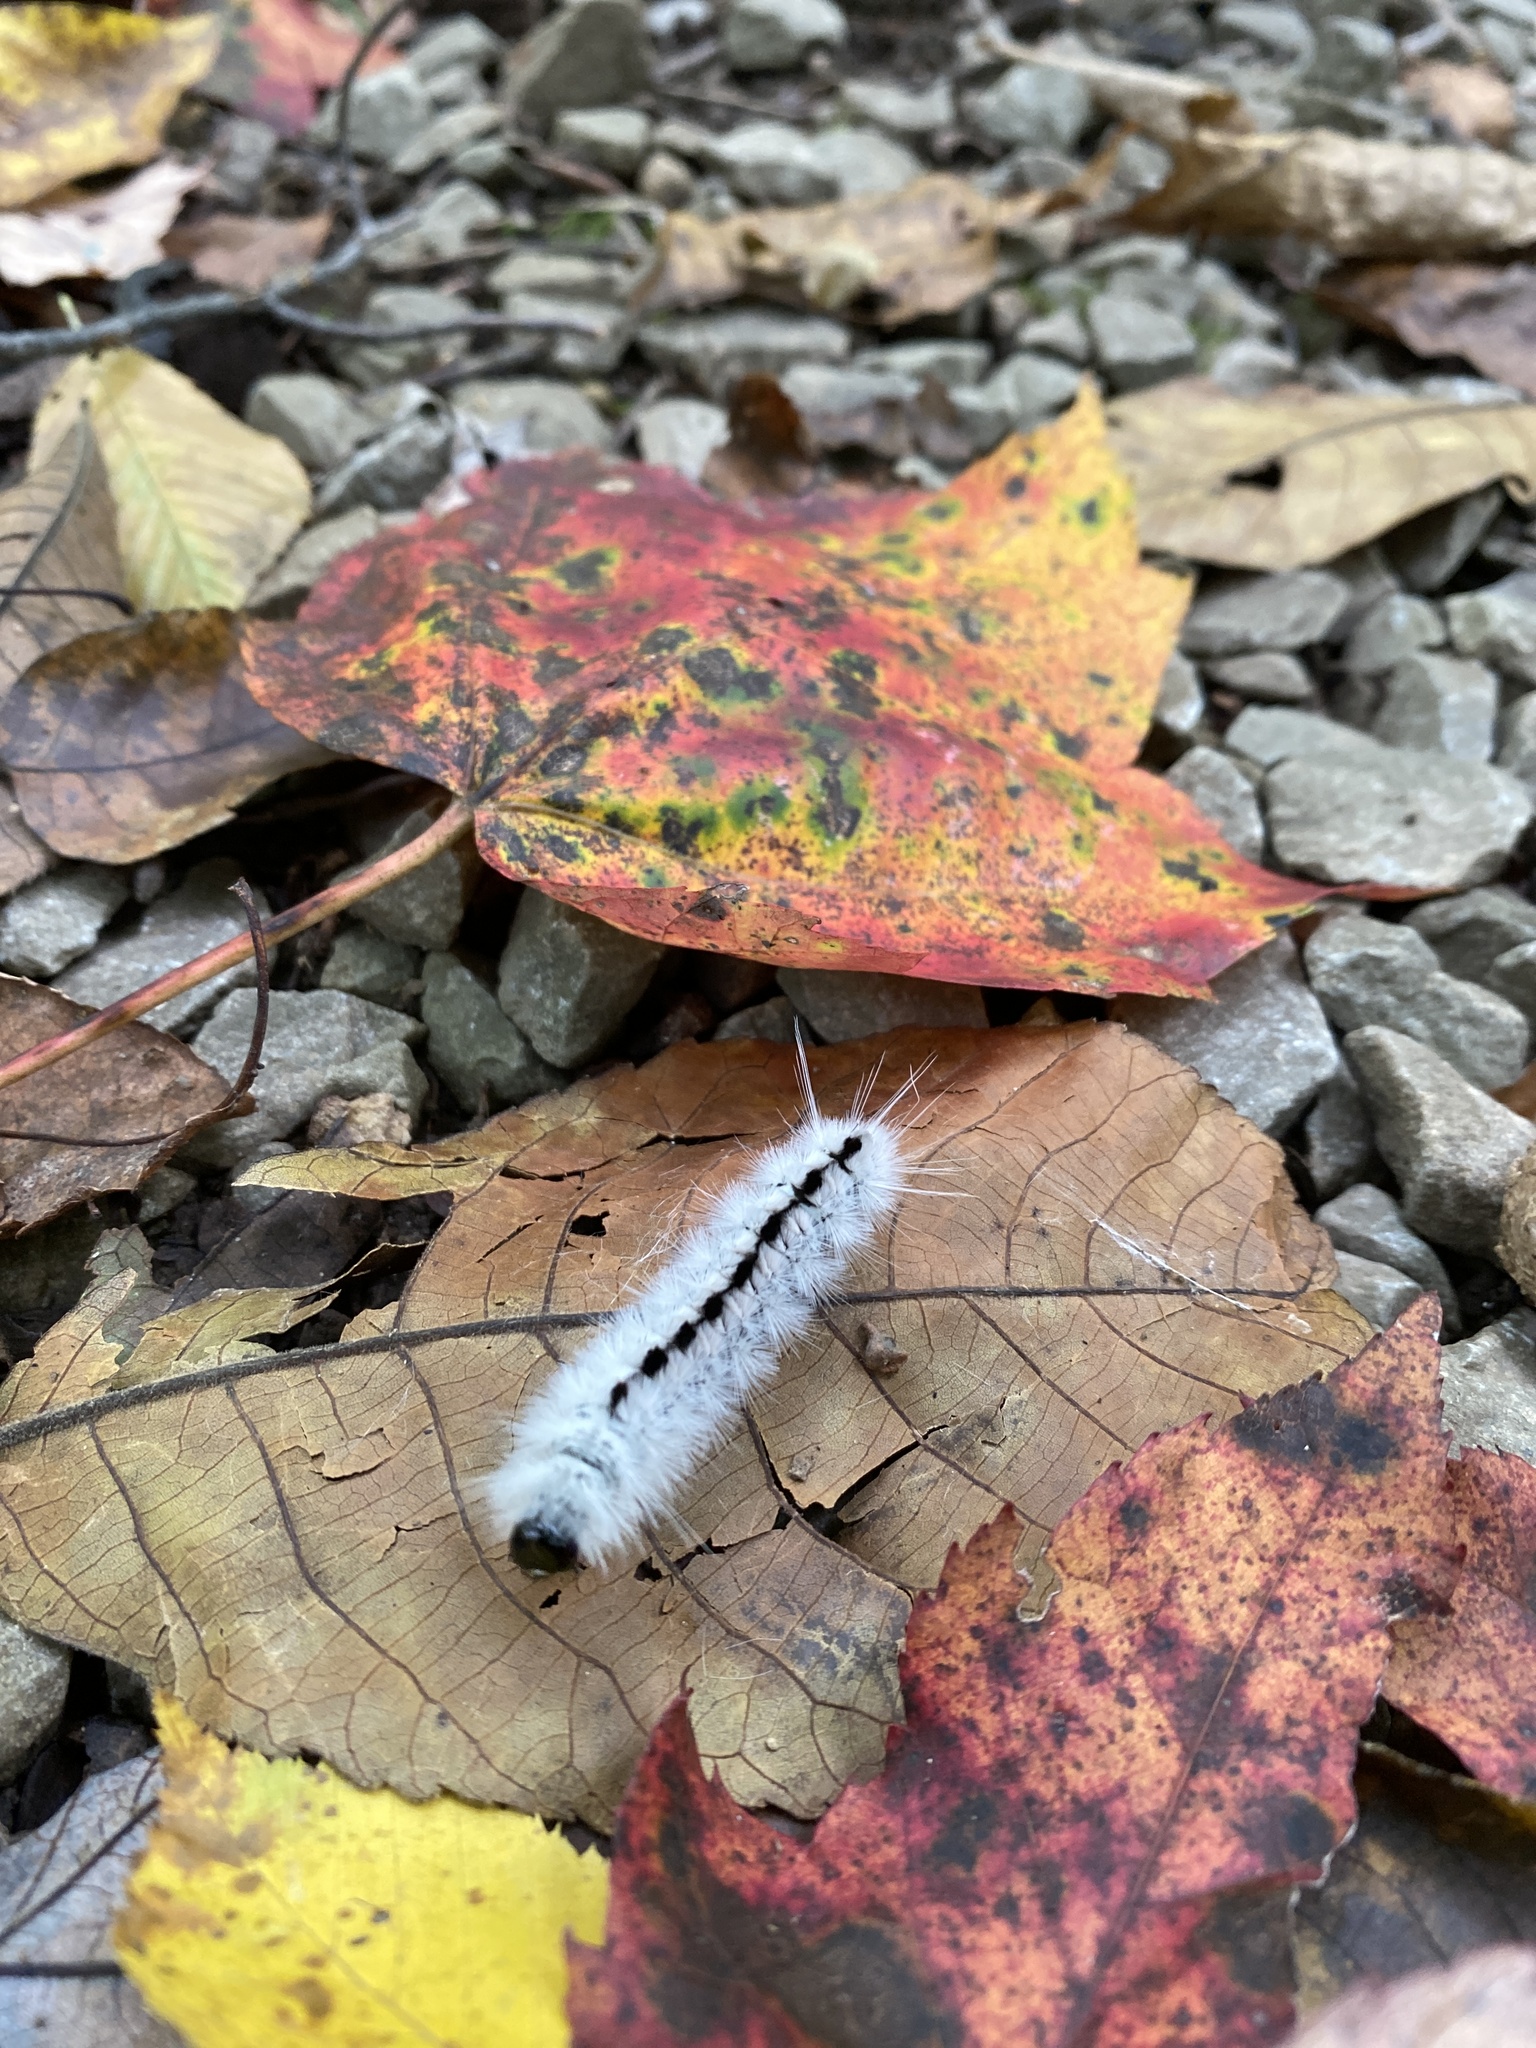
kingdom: Animalia
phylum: Arthropoda
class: Insecta
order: Lepidoptera
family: Erebidae
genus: Lophocampa
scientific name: Lophocampa caryae
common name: Hickory tussock moth
